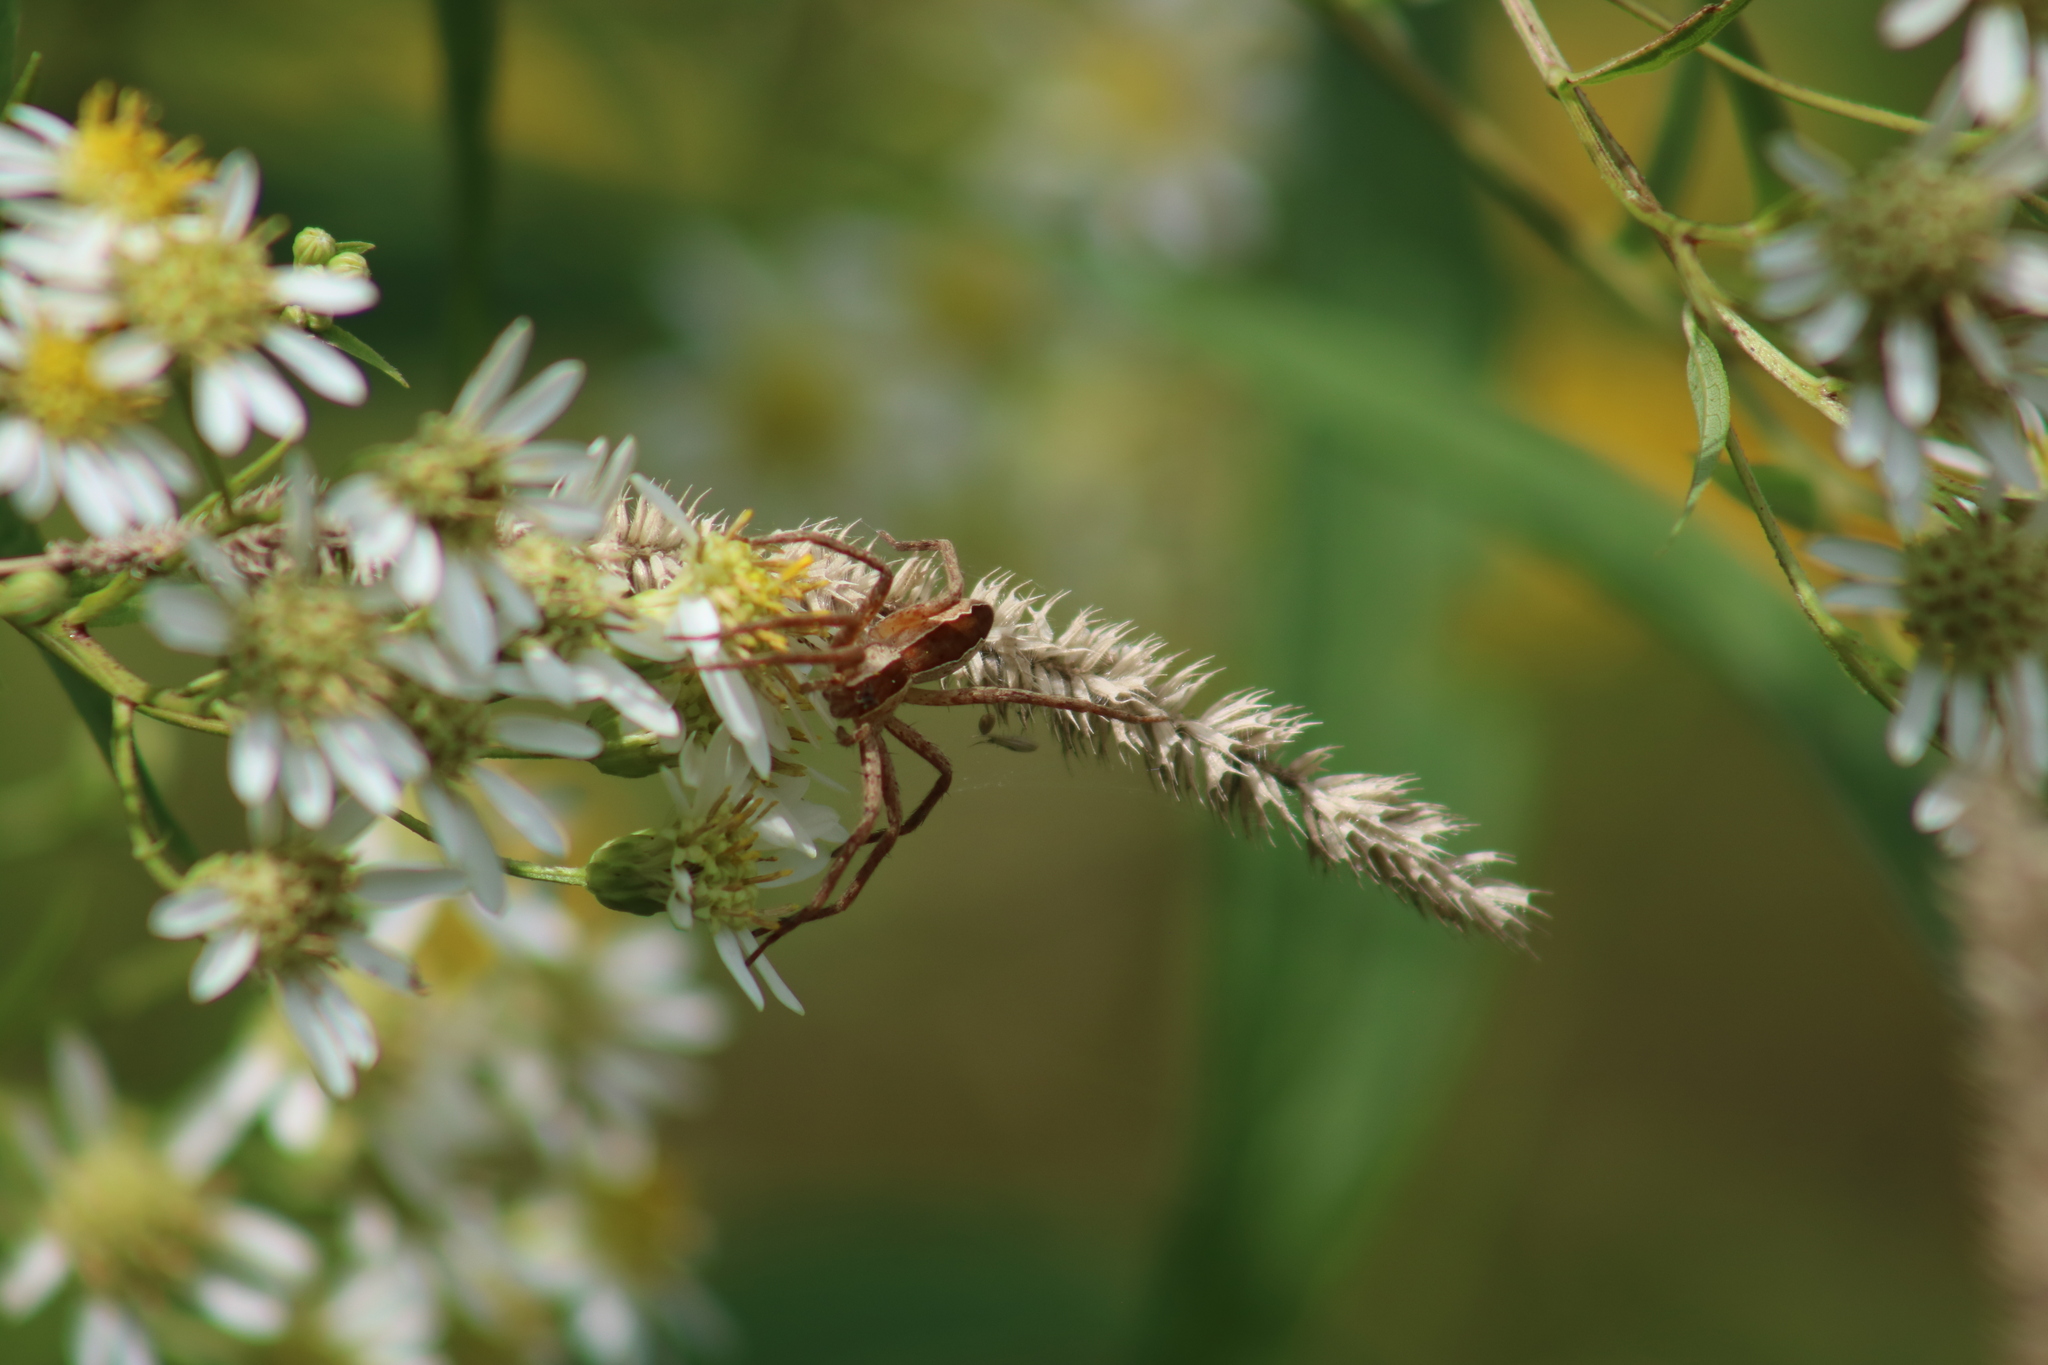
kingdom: Animalia
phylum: Arthropoda
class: Arachnida
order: Araneae
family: Pisauridae
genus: Pisaurina
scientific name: Pisaurina mira
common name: American nursery web spider
